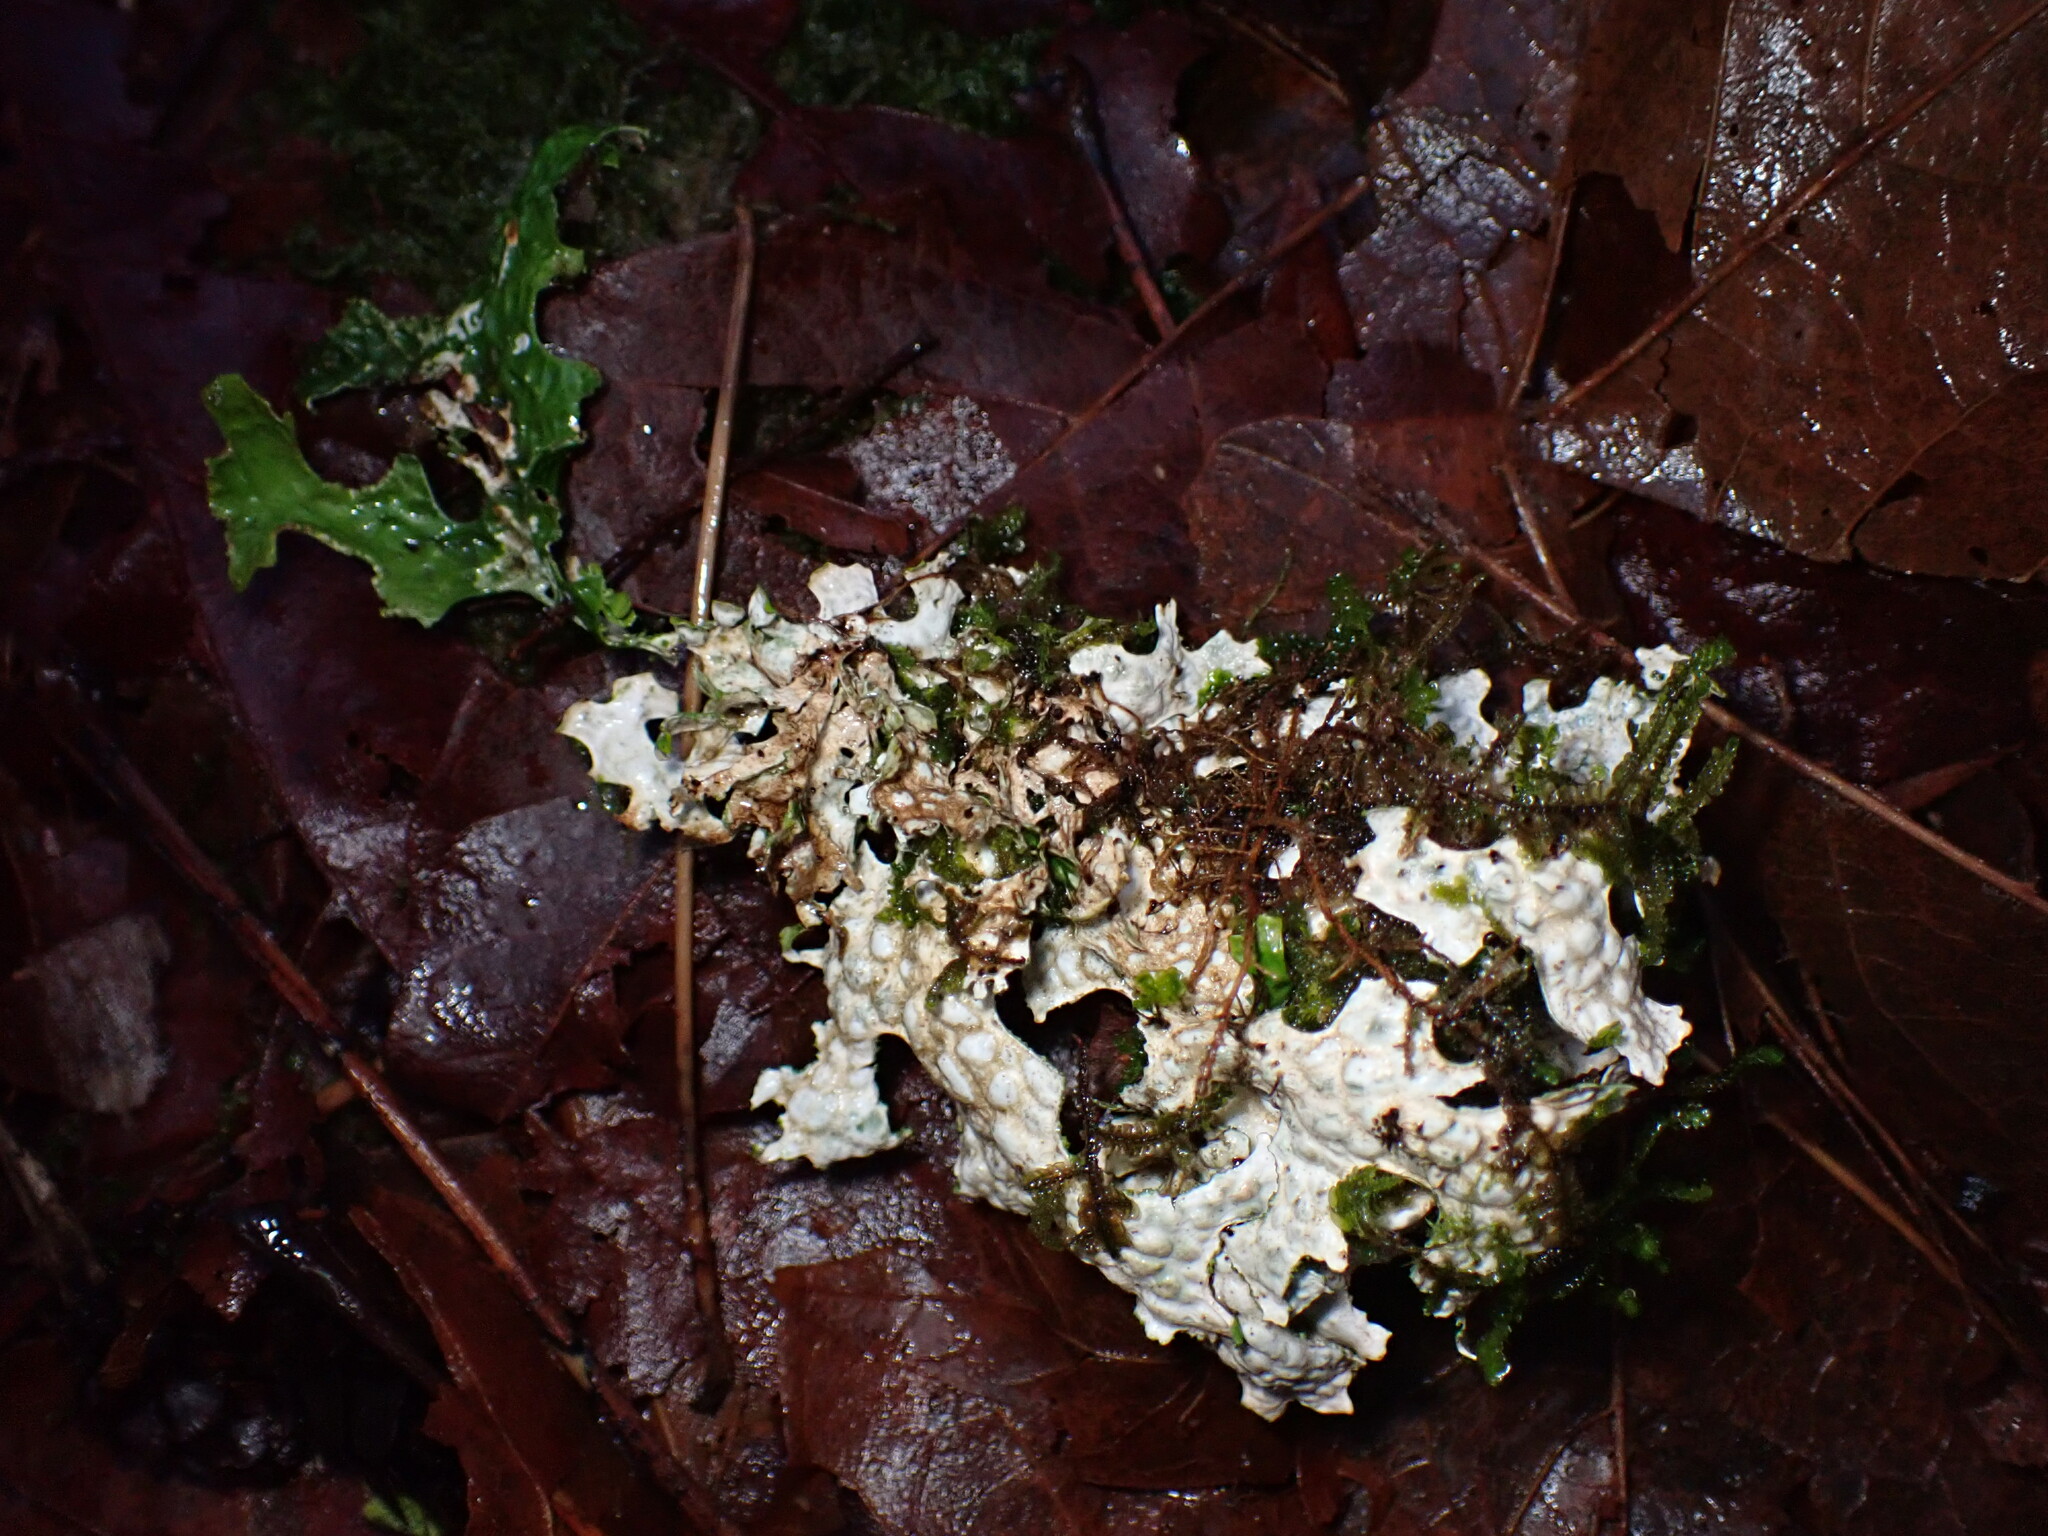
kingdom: Fungi
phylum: Ascomycota
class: Lecanoromycetes
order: Peltigerales
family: Lobariaceae
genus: Lobaria
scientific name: Lobaria oregana
